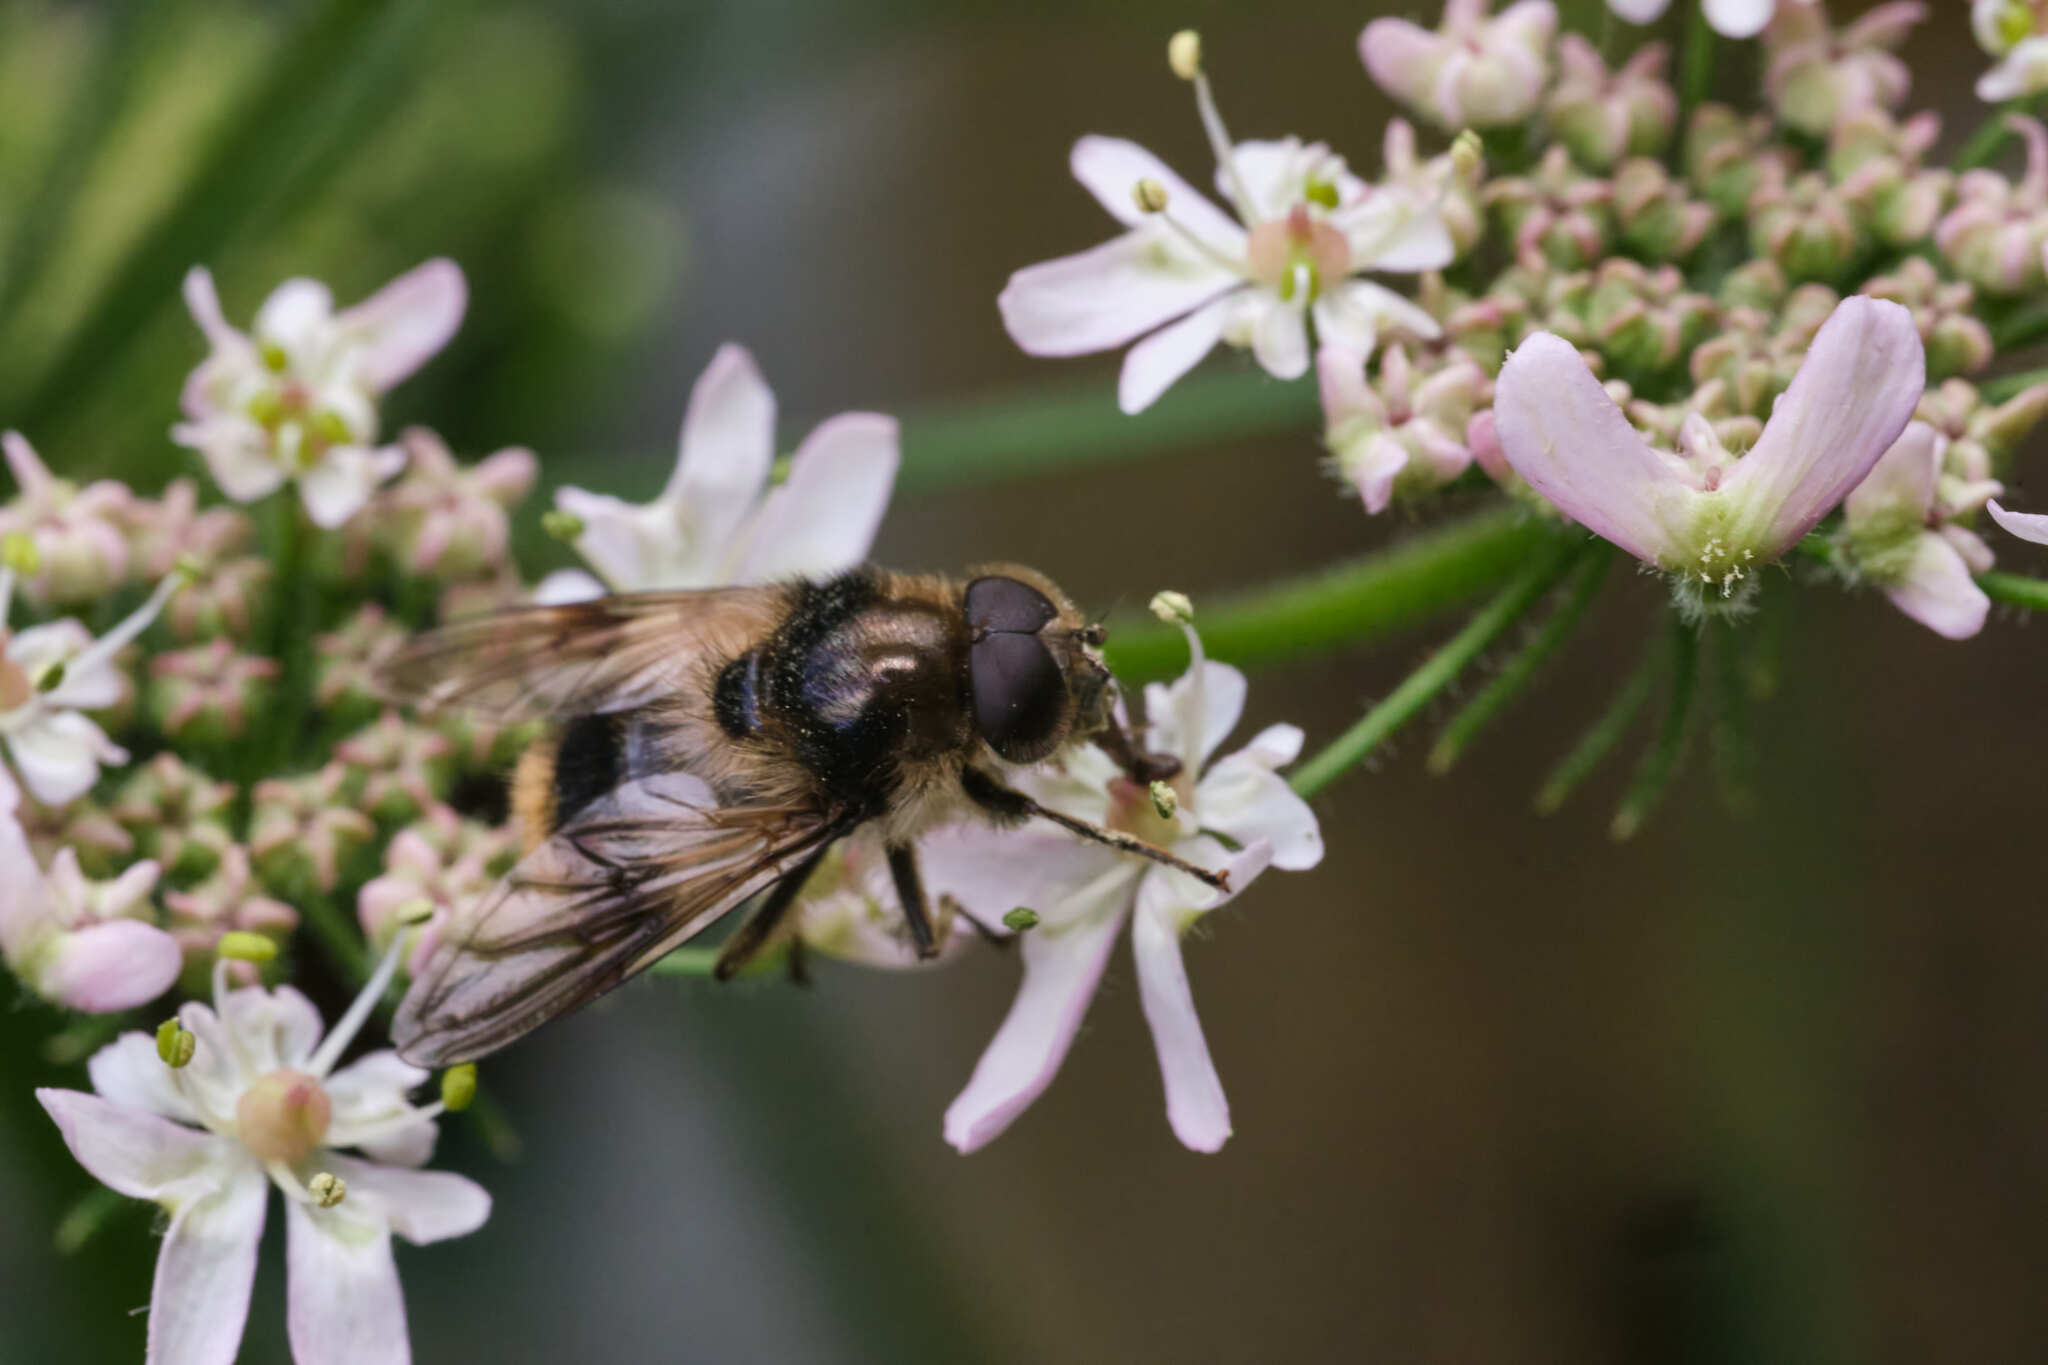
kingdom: Animalia
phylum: Arthropoda
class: Insecta
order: Diptera
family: Syrphidae
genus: Cheilosia
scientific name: Cheilosia illustrata
